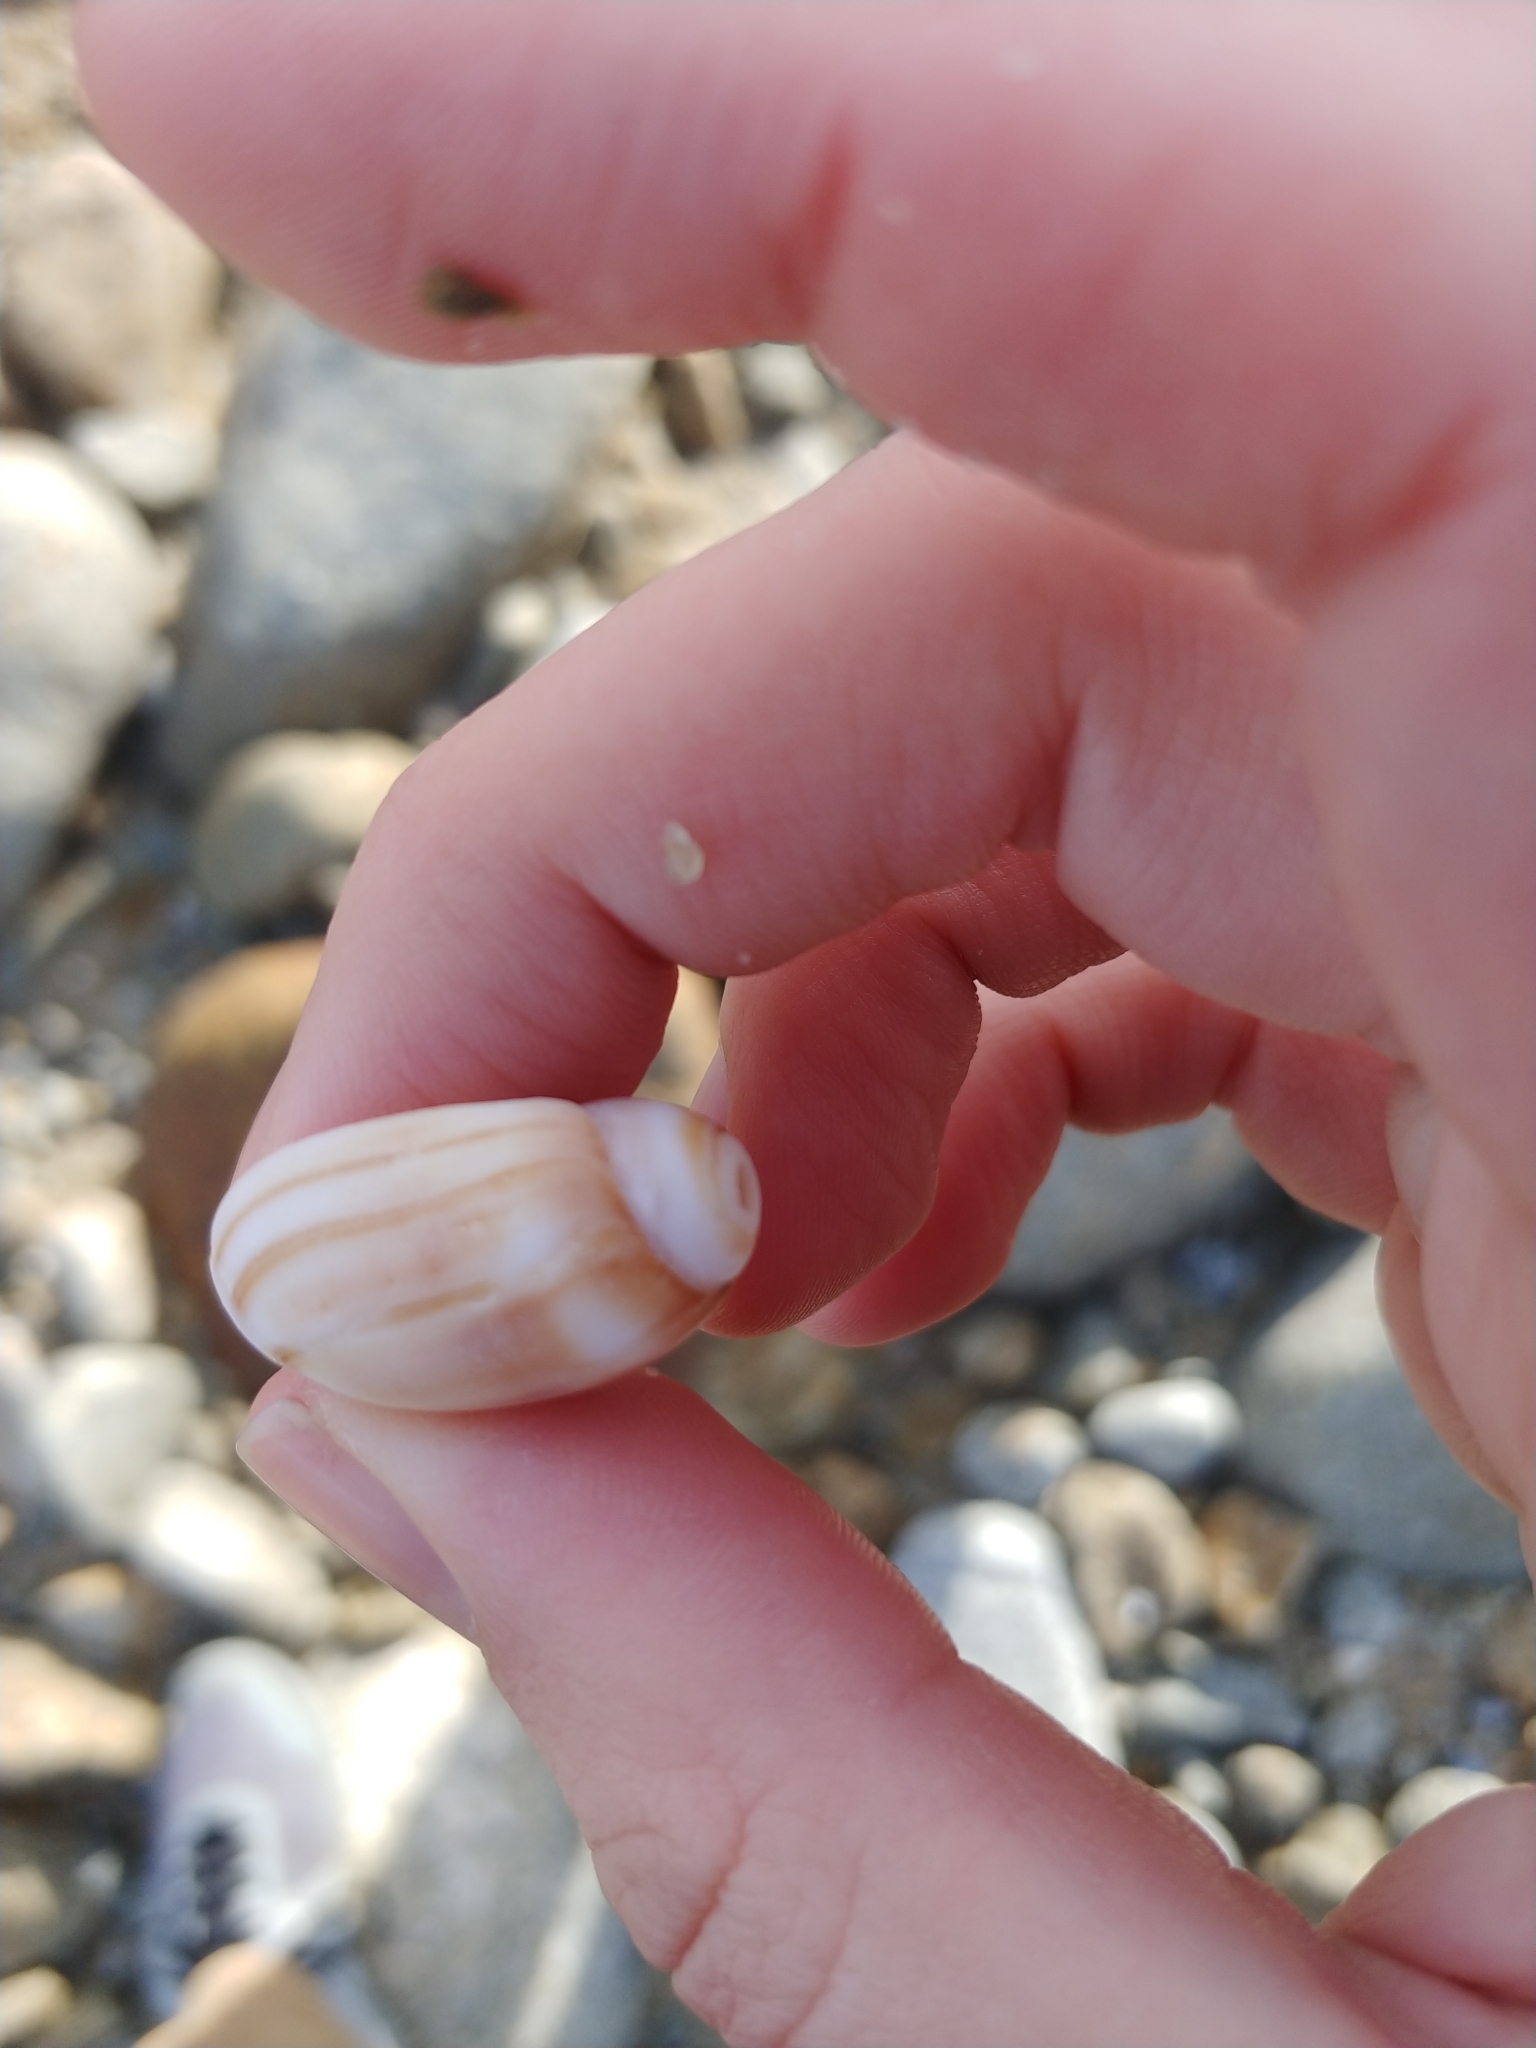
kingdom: Animalia
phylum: Mollusca
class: Gastropoda
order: Neogastropoda
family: Olividae
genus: Callianax
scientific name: Callianax biplicata
